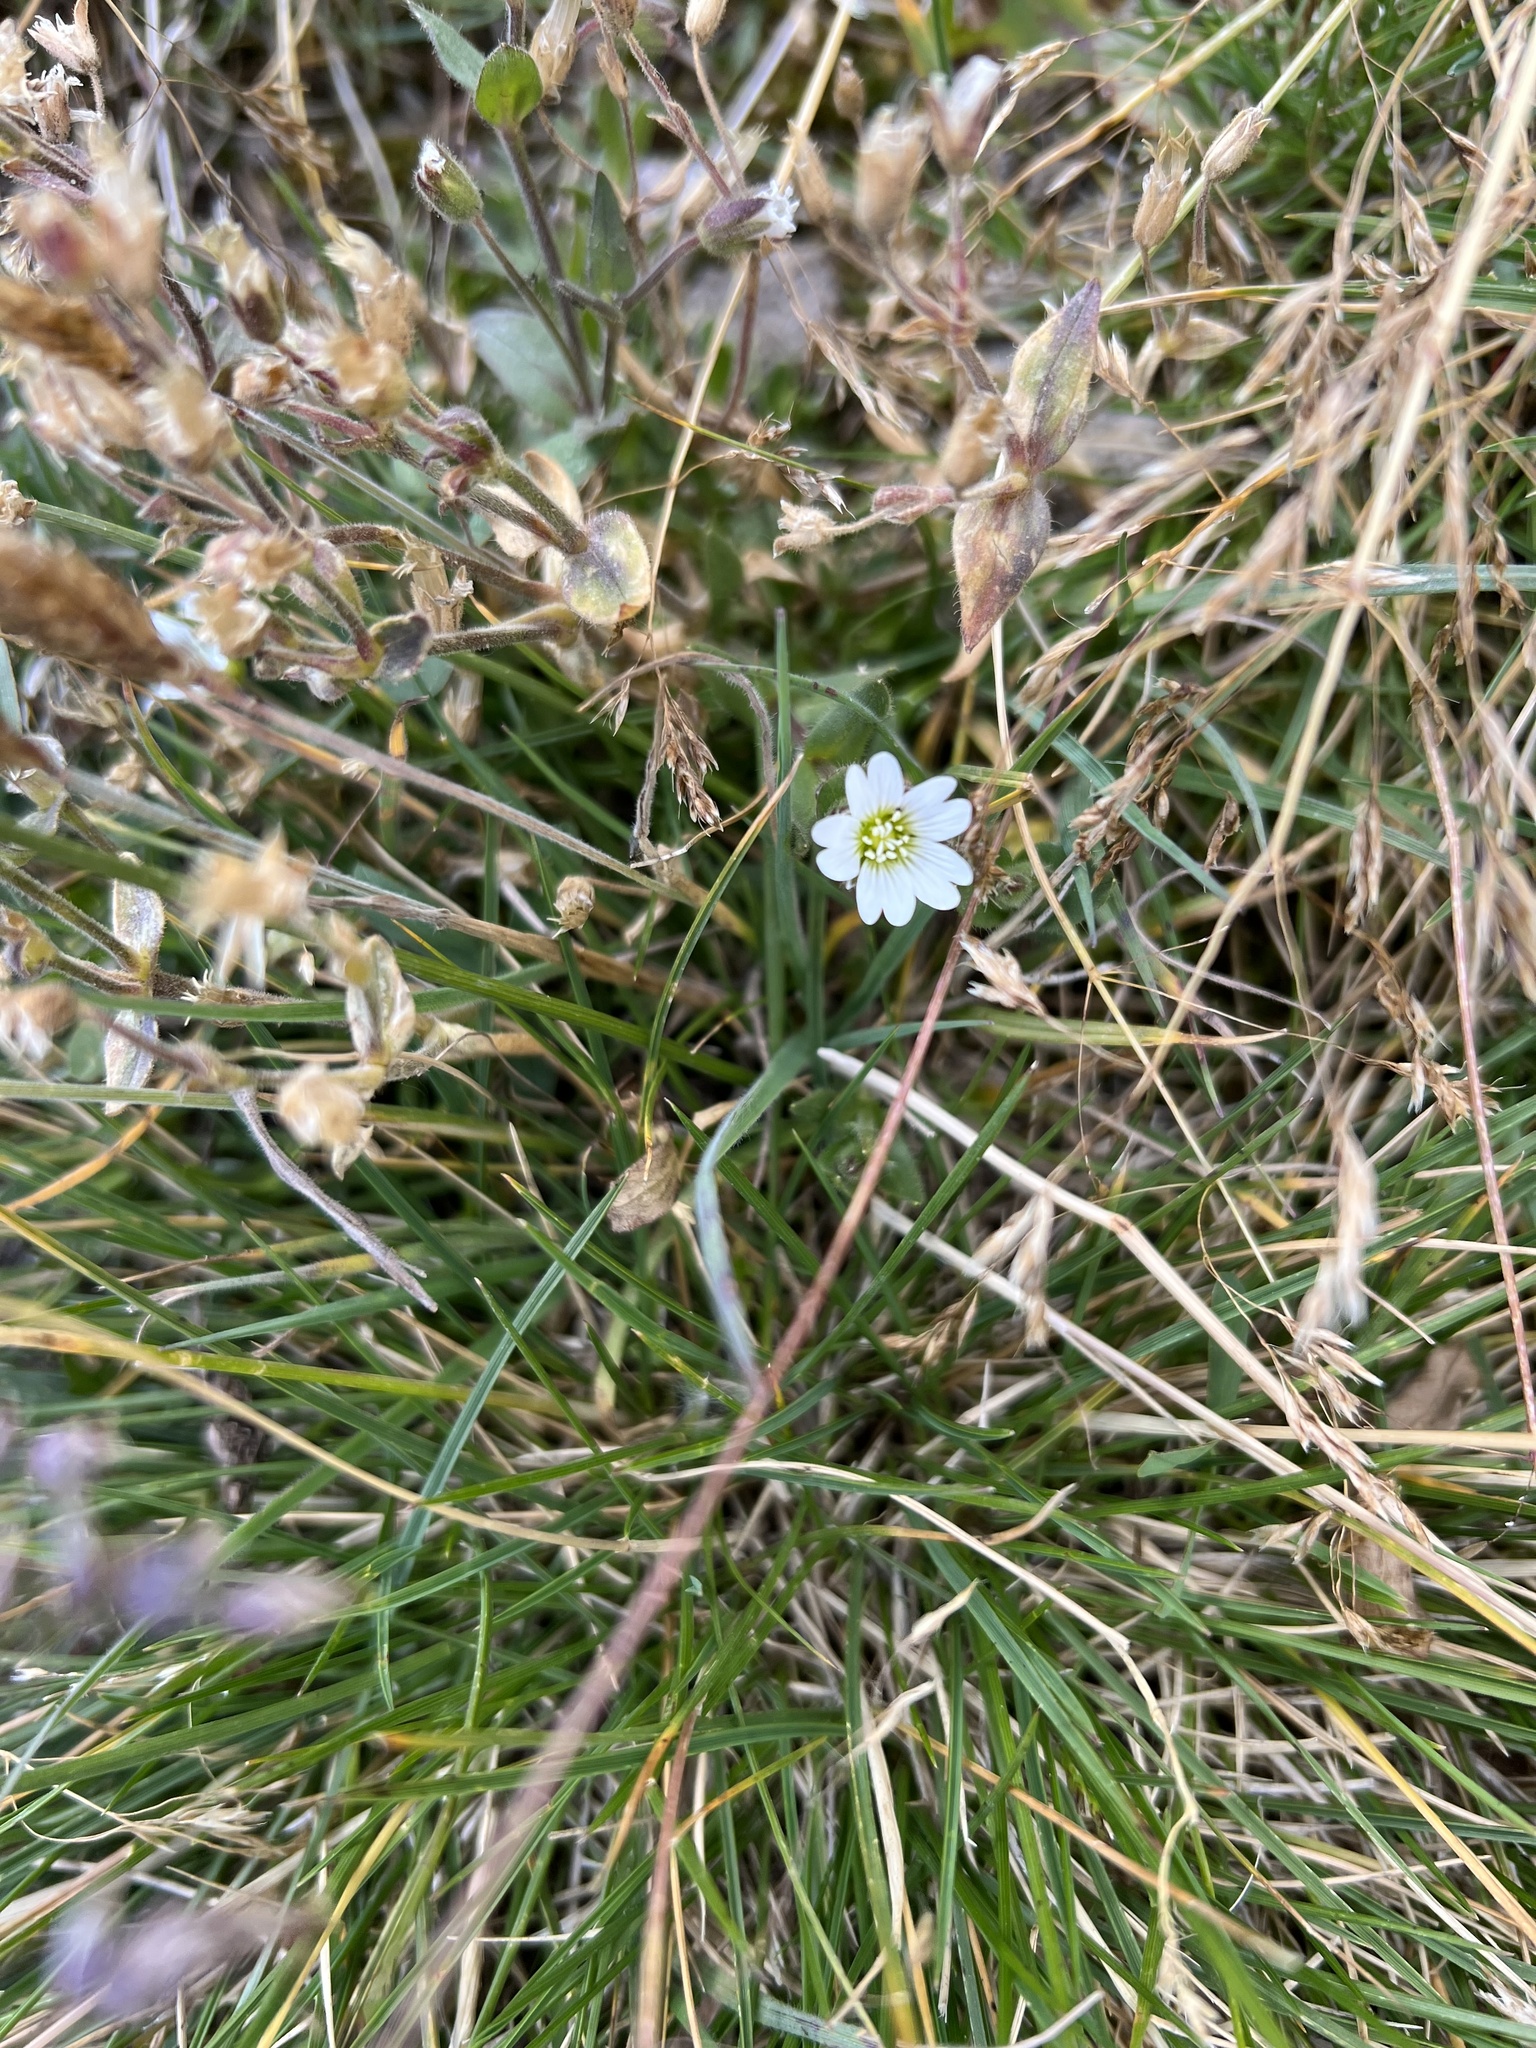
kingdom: Plantae
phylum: Tracheophyta
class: Magnoliopsida
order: Caryophyllales
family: Caryophyllaceae
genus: Cerastium
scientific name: Cerastium beeringianum
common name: Bering mouse-ear chickweed
